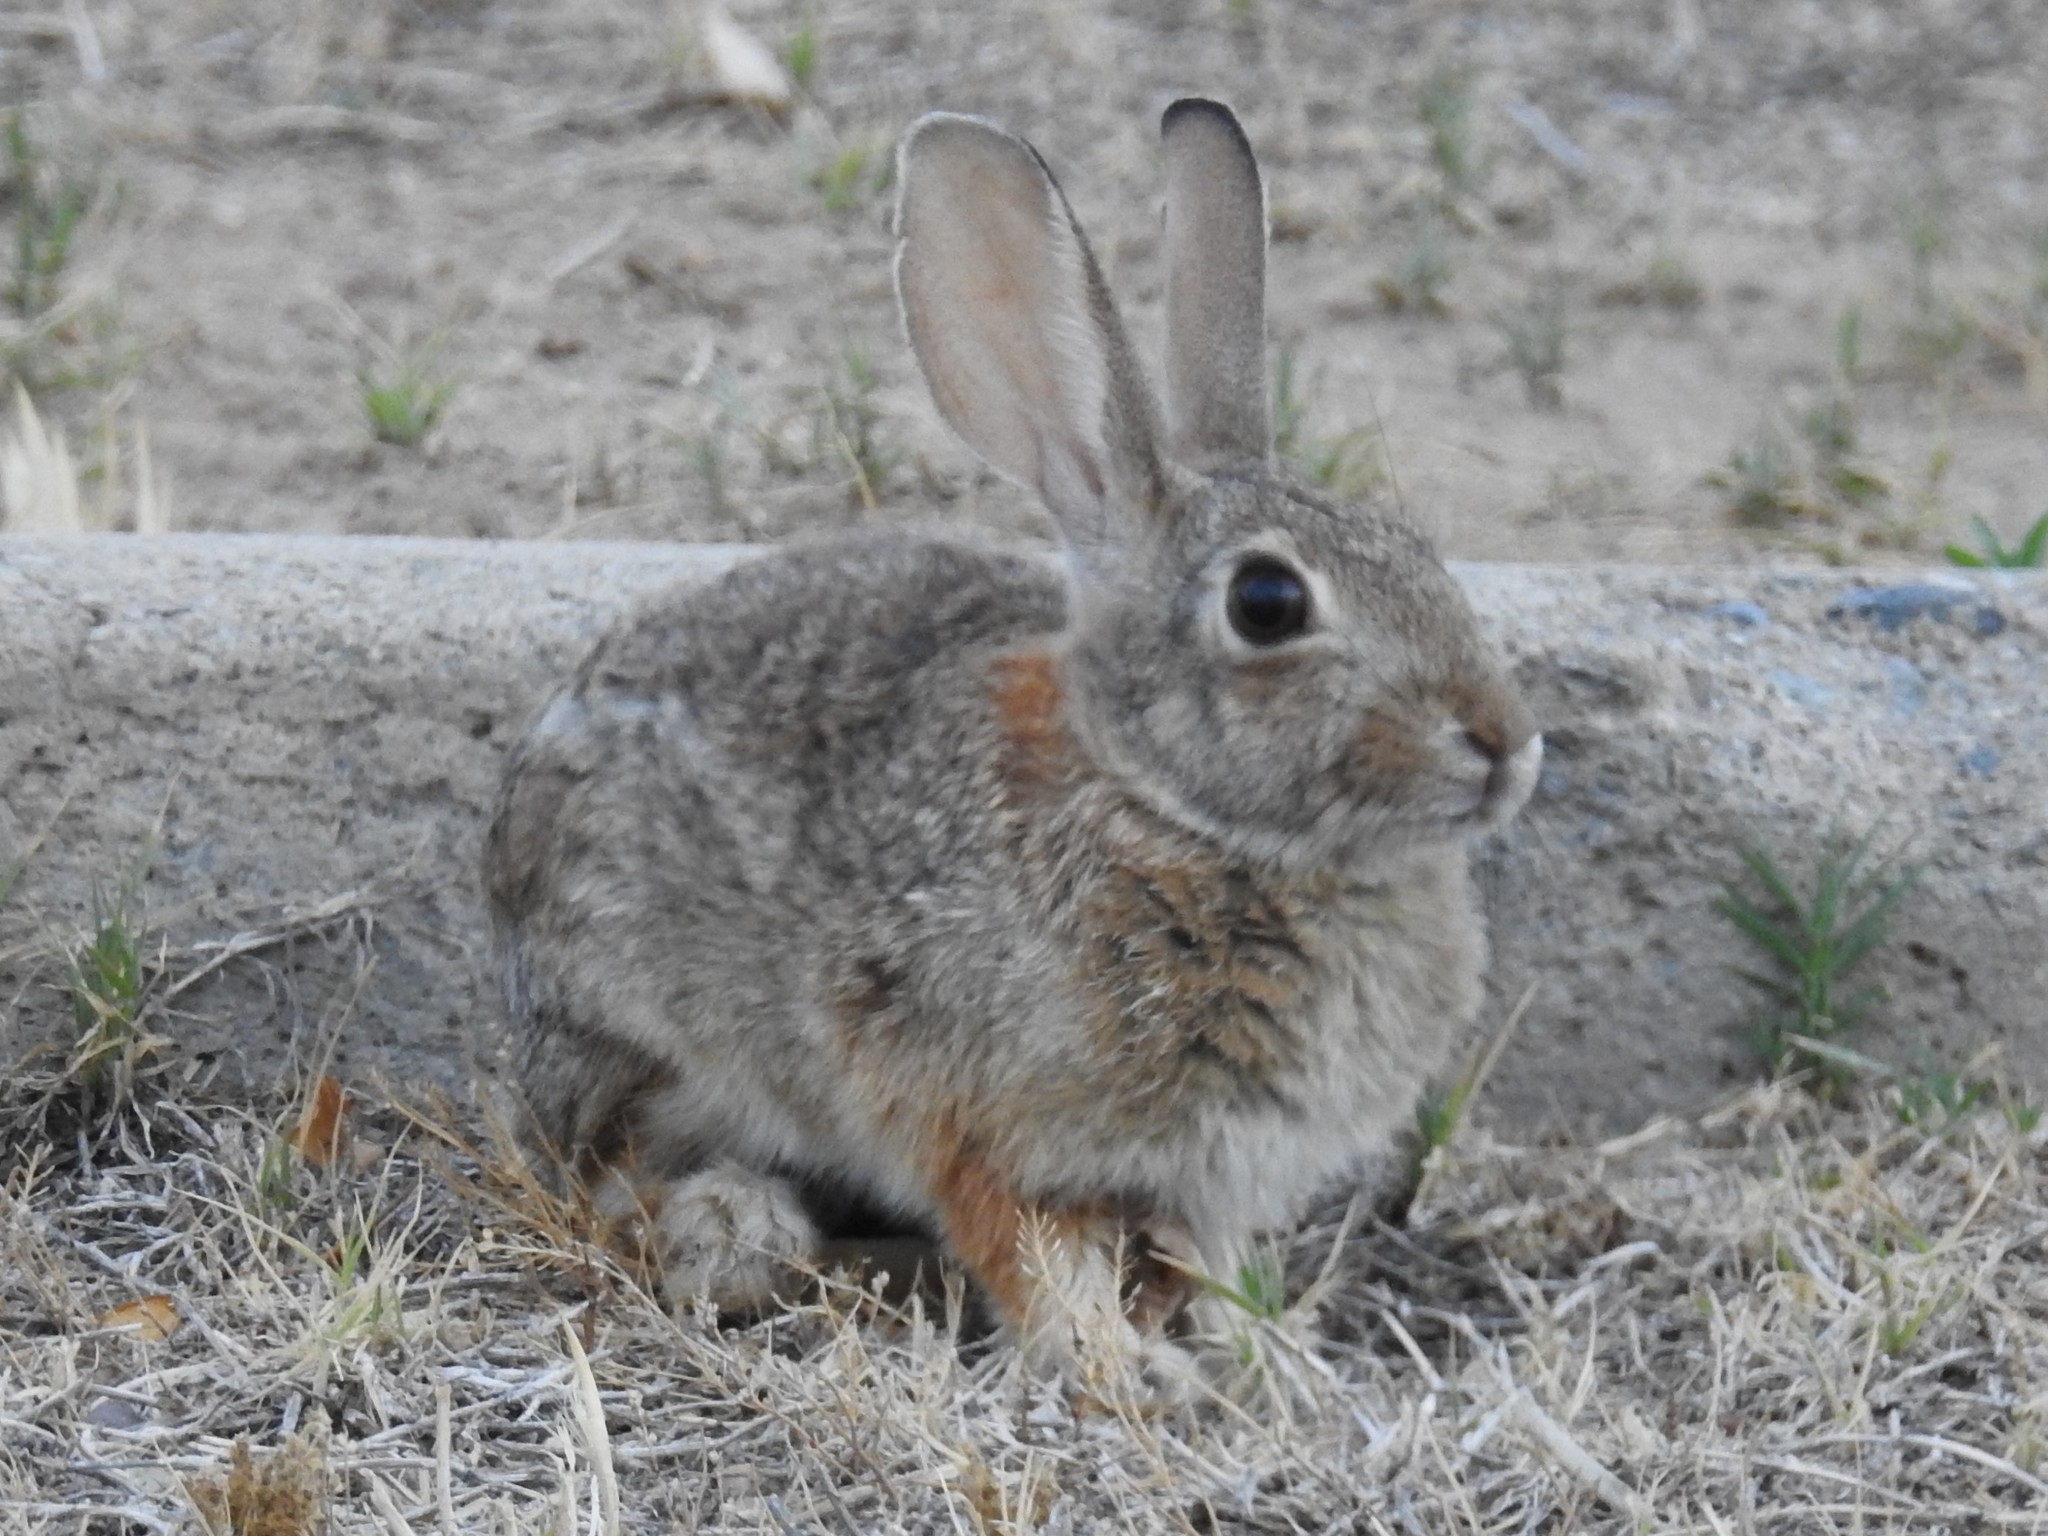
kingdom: Animalia
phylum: Chordata
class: Mammalia
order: Lagomorpha
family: Leporidae
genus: Sylvilagus
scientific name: Sylvilagus audubonii
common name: Desert cottontail
